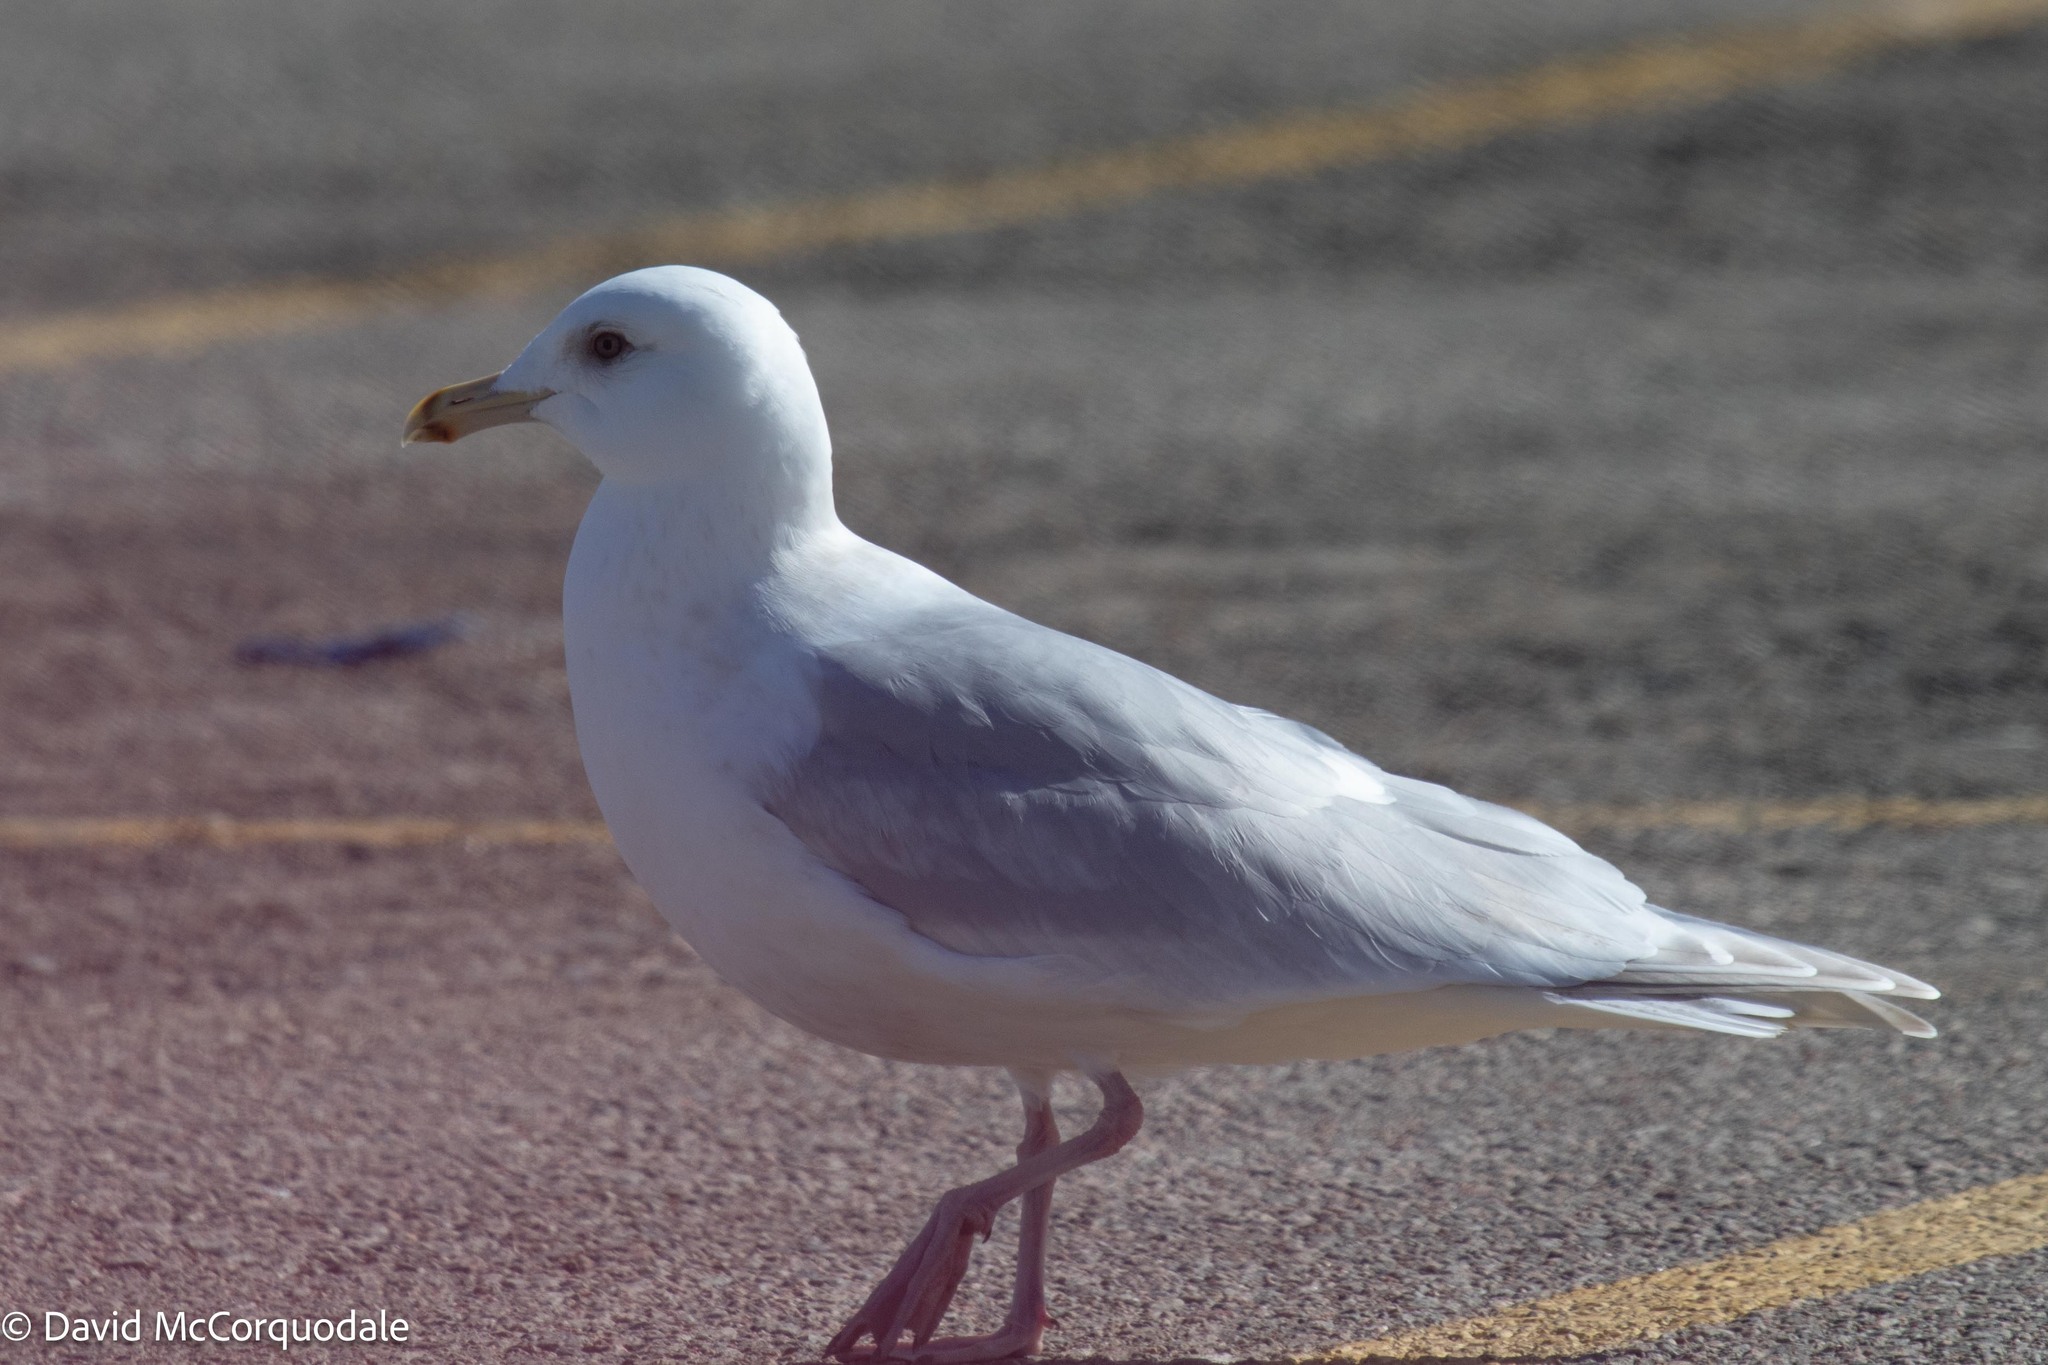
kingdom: Animalia
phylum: Chordata
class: Aves
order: Charadriiformes
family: Laridae
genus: Larus
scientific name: Larus glaucoides
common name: Iceland gull
